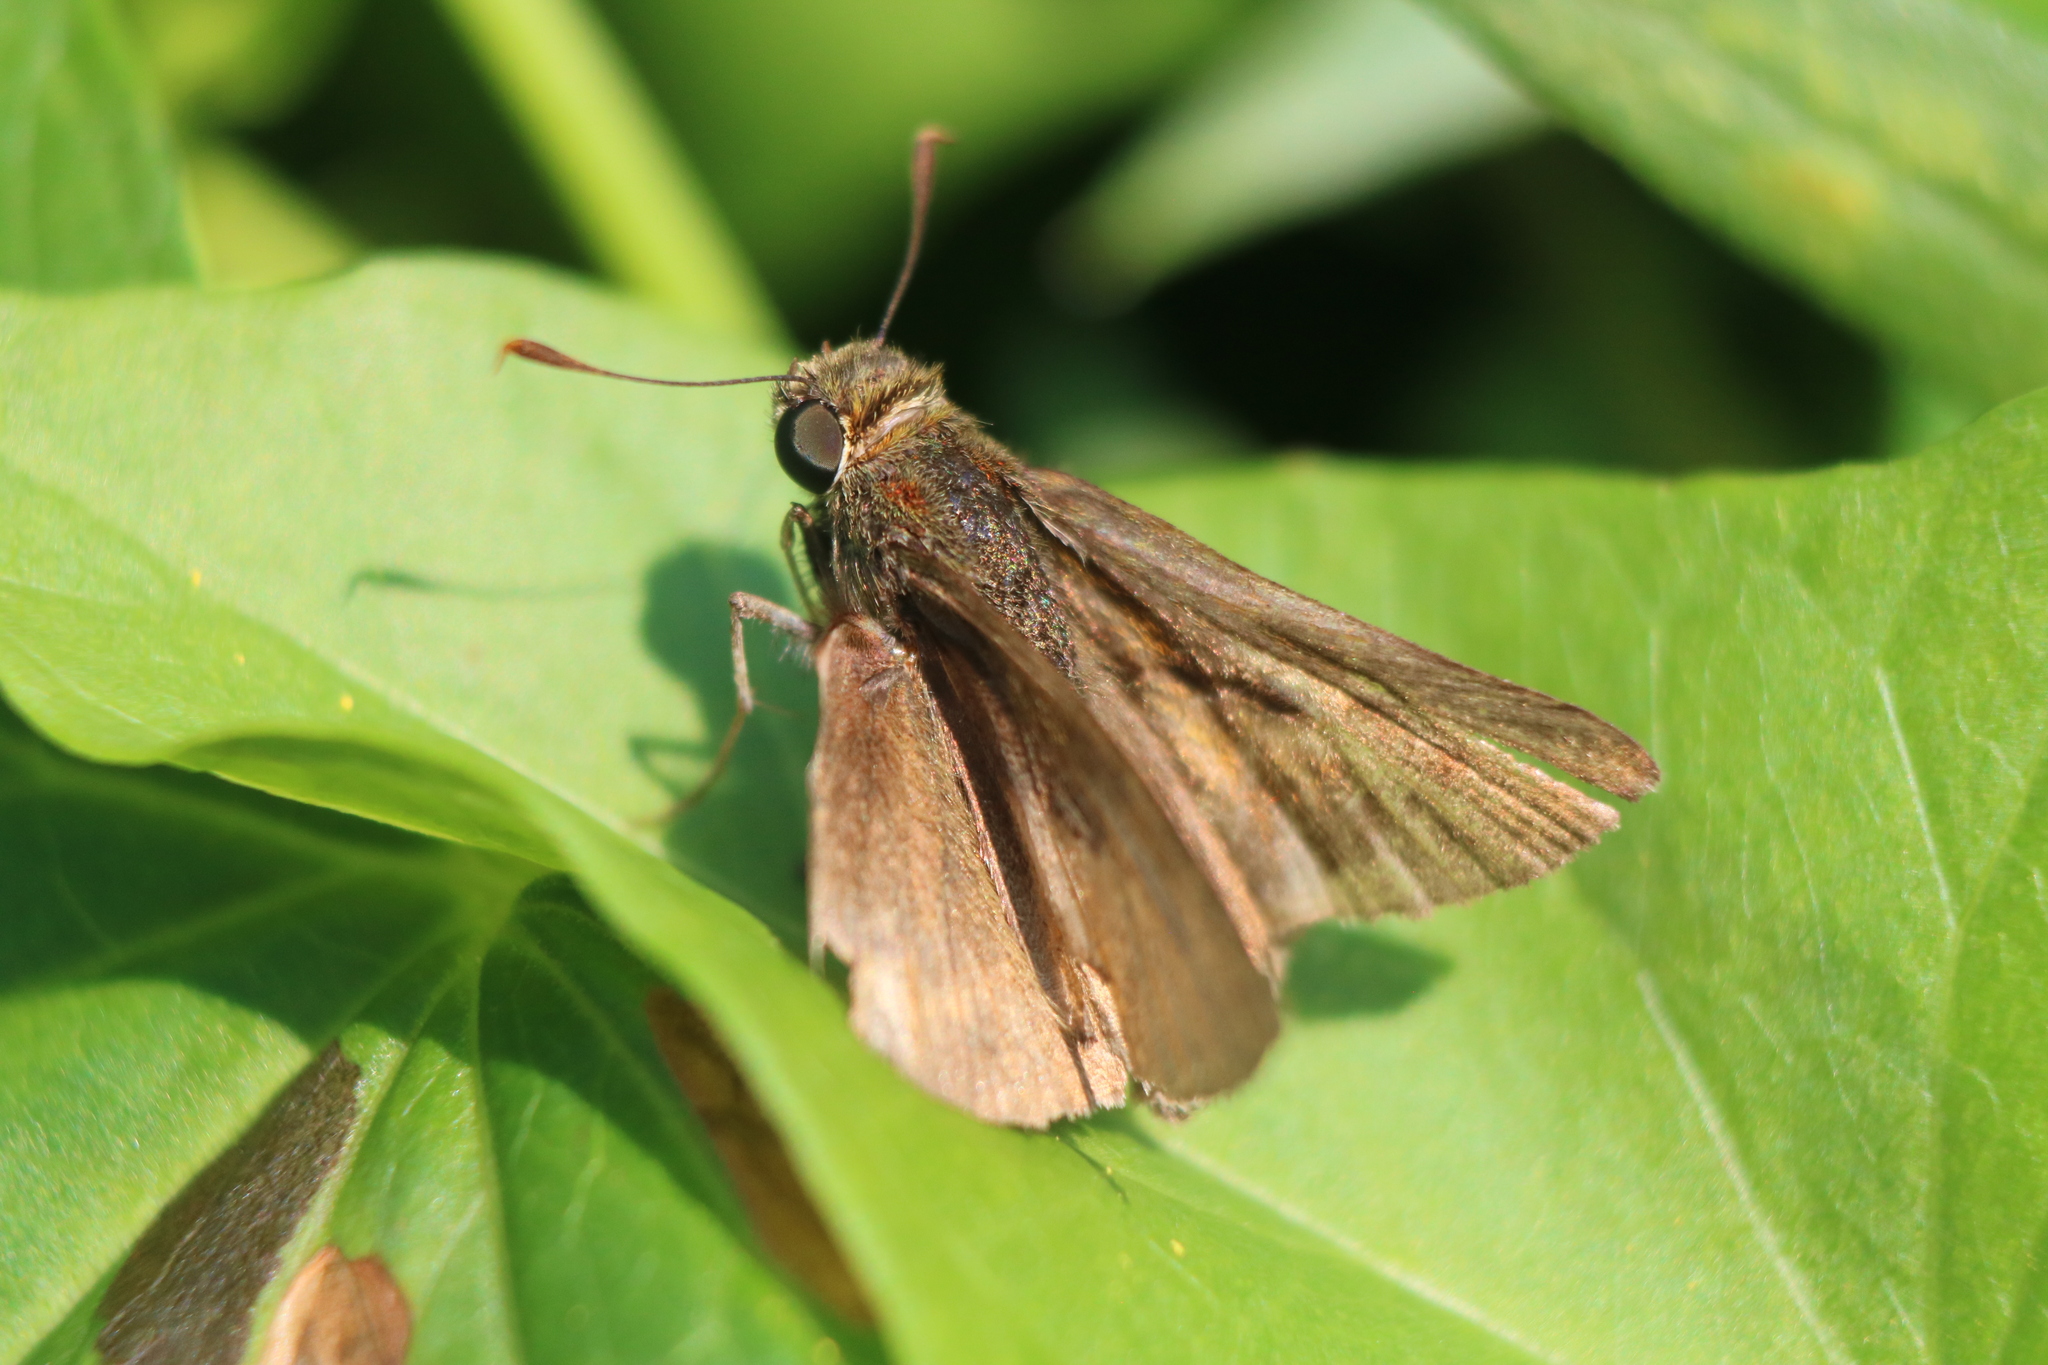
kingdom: Animalia
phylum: Arthropoda
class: Insecta
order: Lepidoptera
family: Hesperiidae
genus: Euphyes
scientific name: Euphyes vestris
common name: Dun skipper
